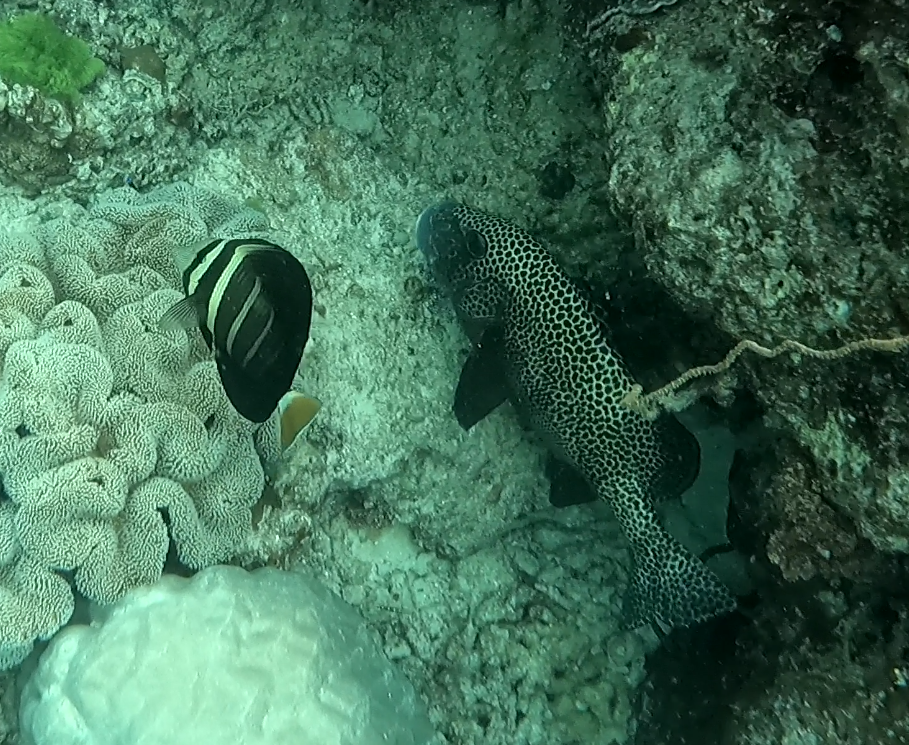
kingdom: Animalia
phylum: Chordata
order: Perciformes
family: Acanthuridae
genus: Zebrasoma
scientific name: Zebrasoma veliferum
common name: Sailfin surgeonfish
